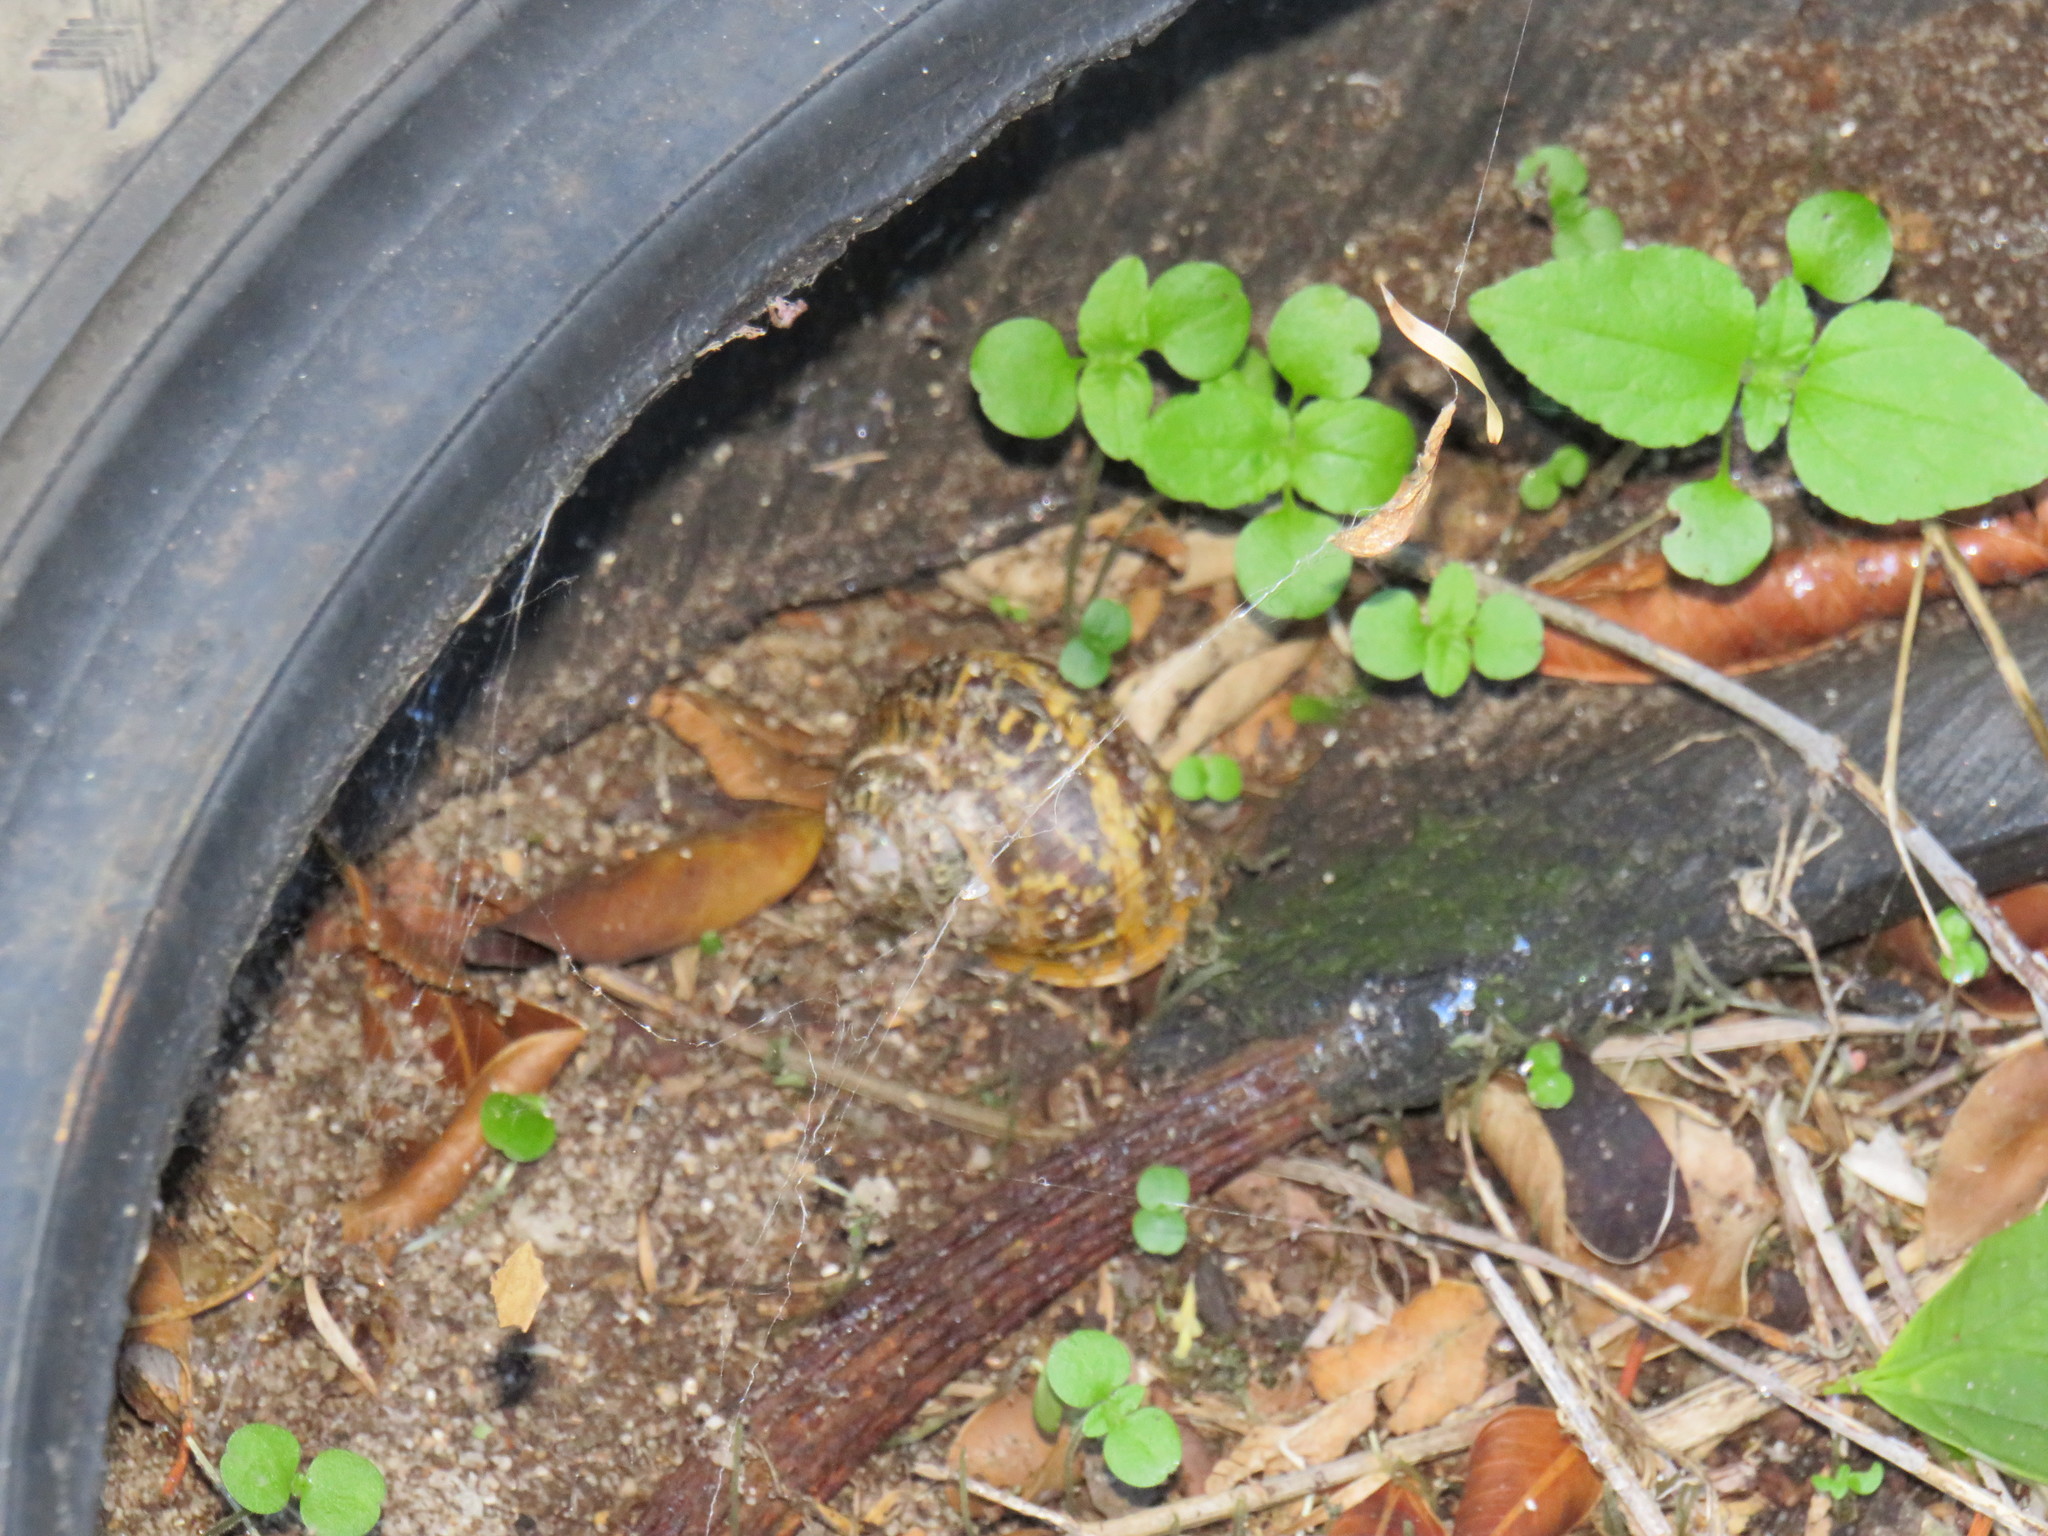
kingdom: Animalia
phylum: Mollusca
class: Gastropoda
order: Stylommatophora
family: Helicidae
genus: Cornu
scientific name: Cornu aspersum
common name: Brown garden snail
